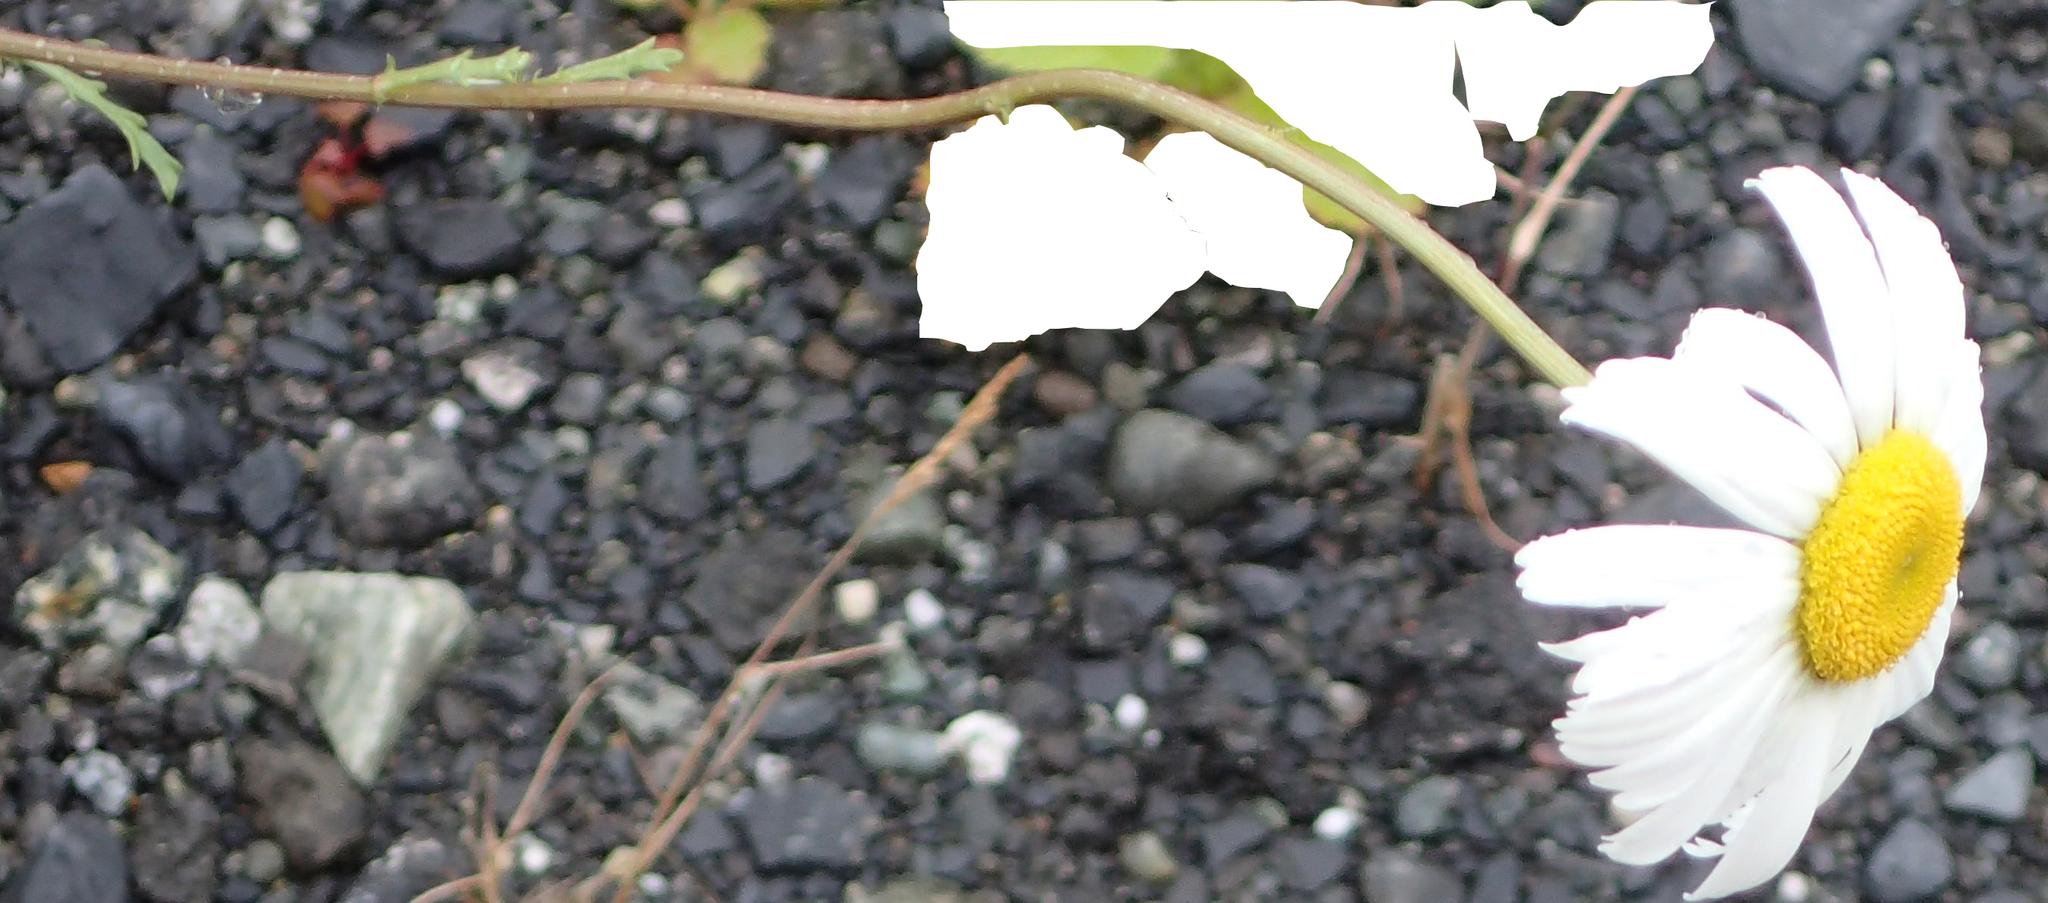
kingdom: Plantae
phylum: Tracheophyta
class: Magnoliopsida
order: Asterales
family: Asteraceae
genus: Leucanthemum
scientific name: Leucanthemum vulgare
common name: Oxeye daisy
